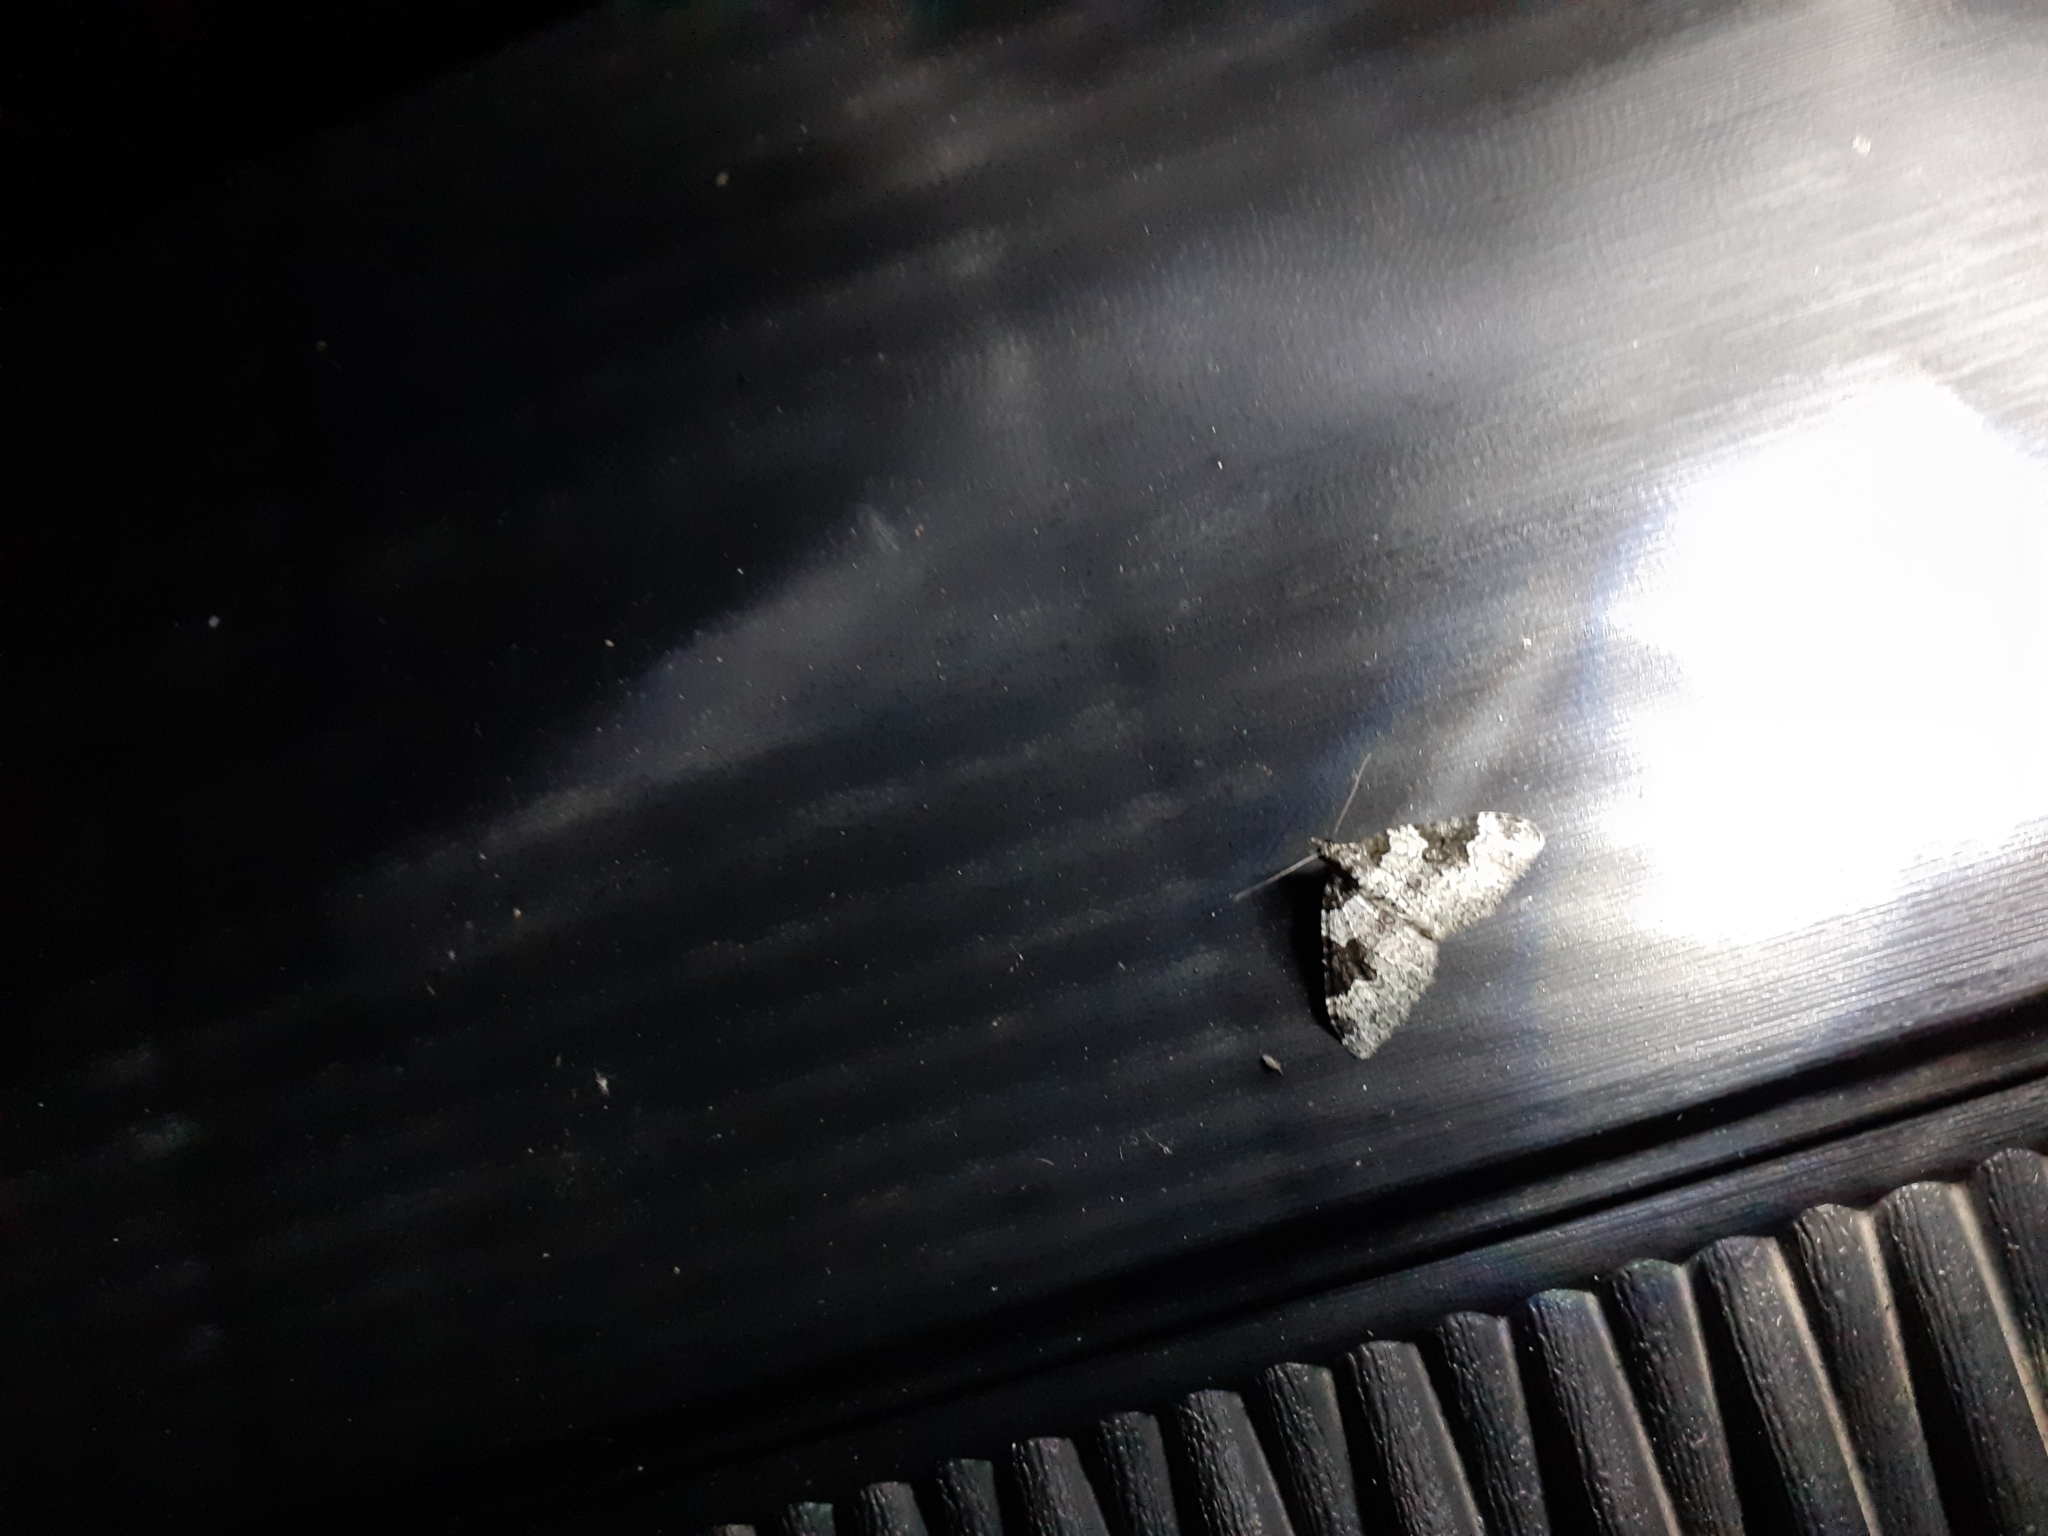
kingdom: Animalia
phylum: Arthropoda
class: Insecta
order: Lepidoptera
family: Geometridae
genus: Xanthorhoe
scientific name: Xanthorhoe fluctuata
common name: Garden carpet
